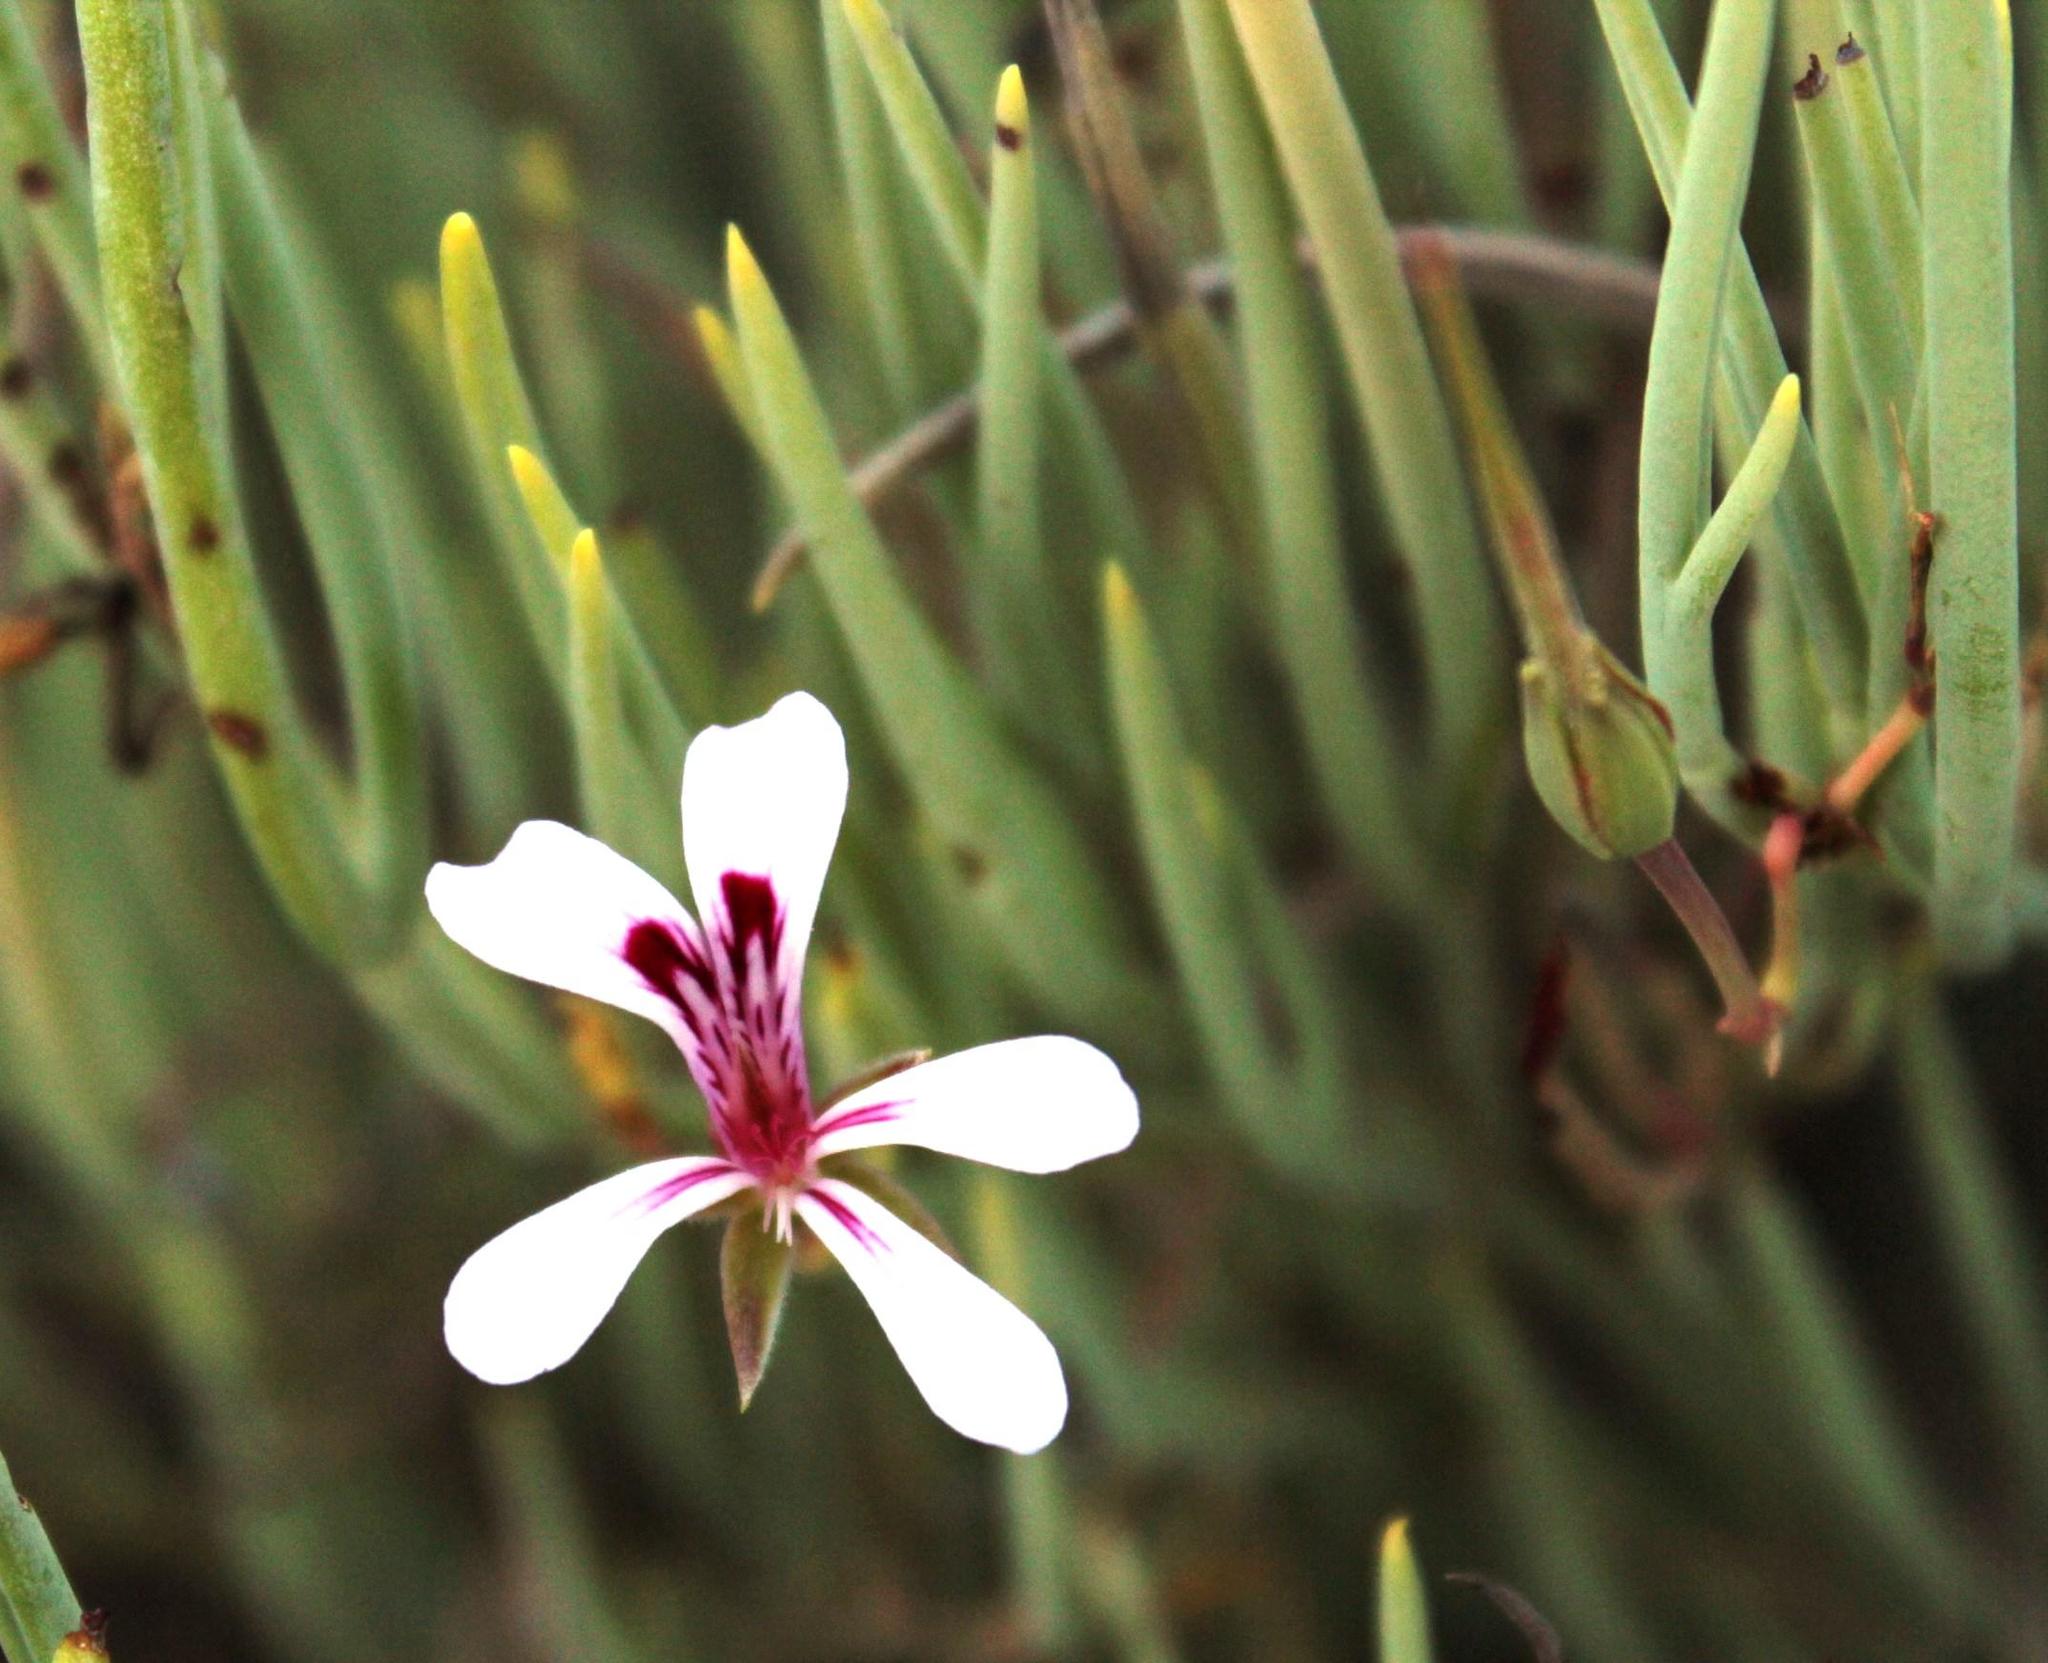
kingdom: Plantae
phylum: Tracheophyta
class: Magnoliopsida
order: Geraniales
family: Geraniaceae
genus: Pelargonium
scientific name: Pelargonium laevigatum
